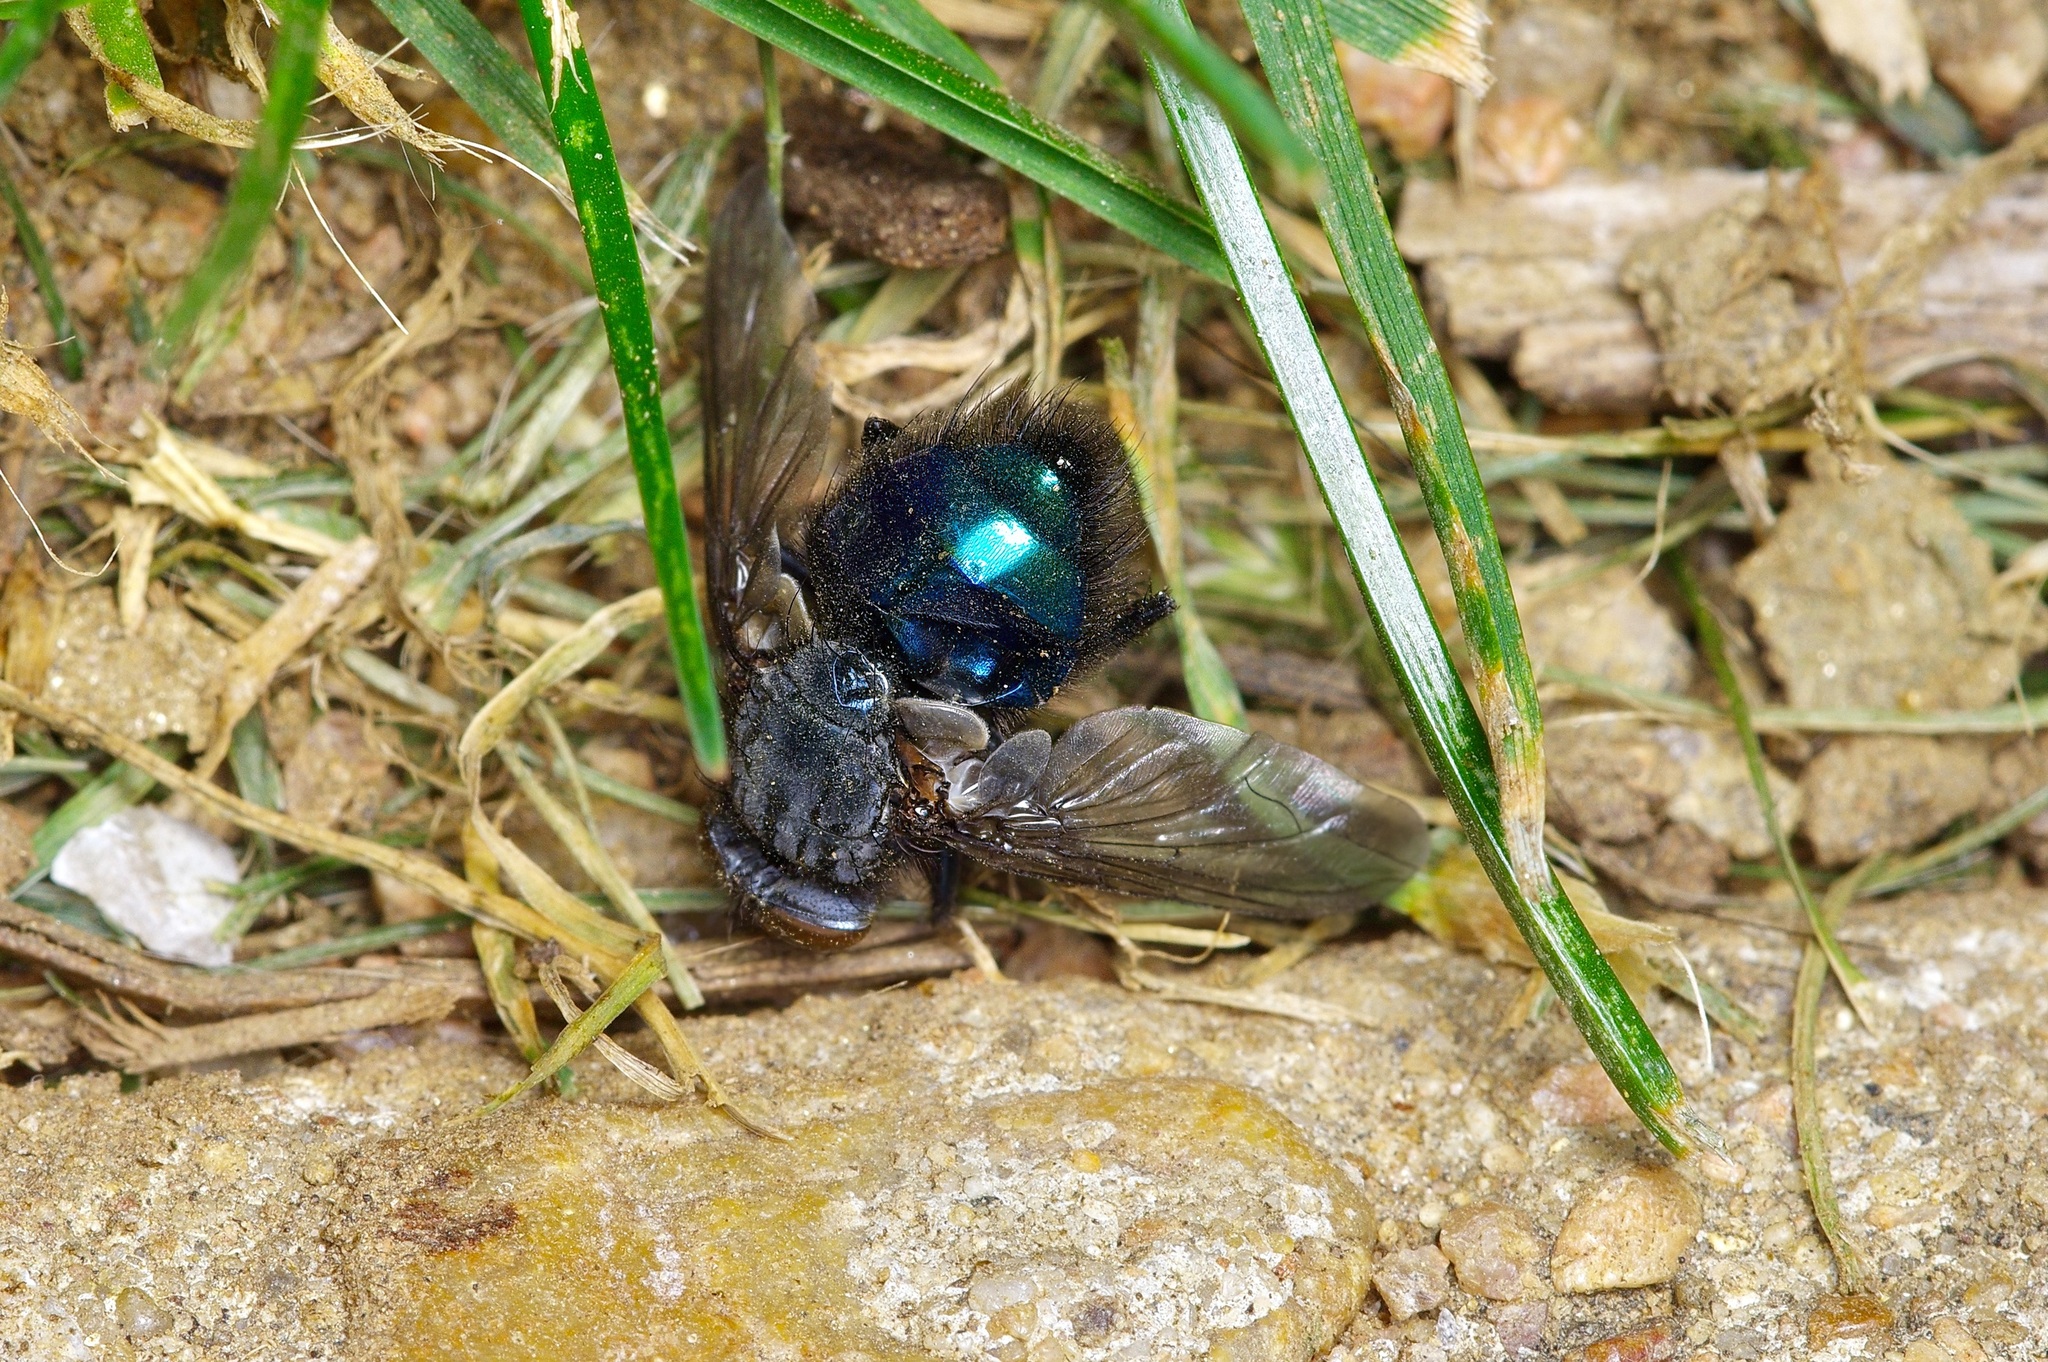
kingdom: Animalia
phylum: Arthropoda
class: Insecta
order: Diptera
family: Calliphoridae
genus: Cynomya
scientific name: Cynomya cadaverina
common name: Shiny blue bottle fly
